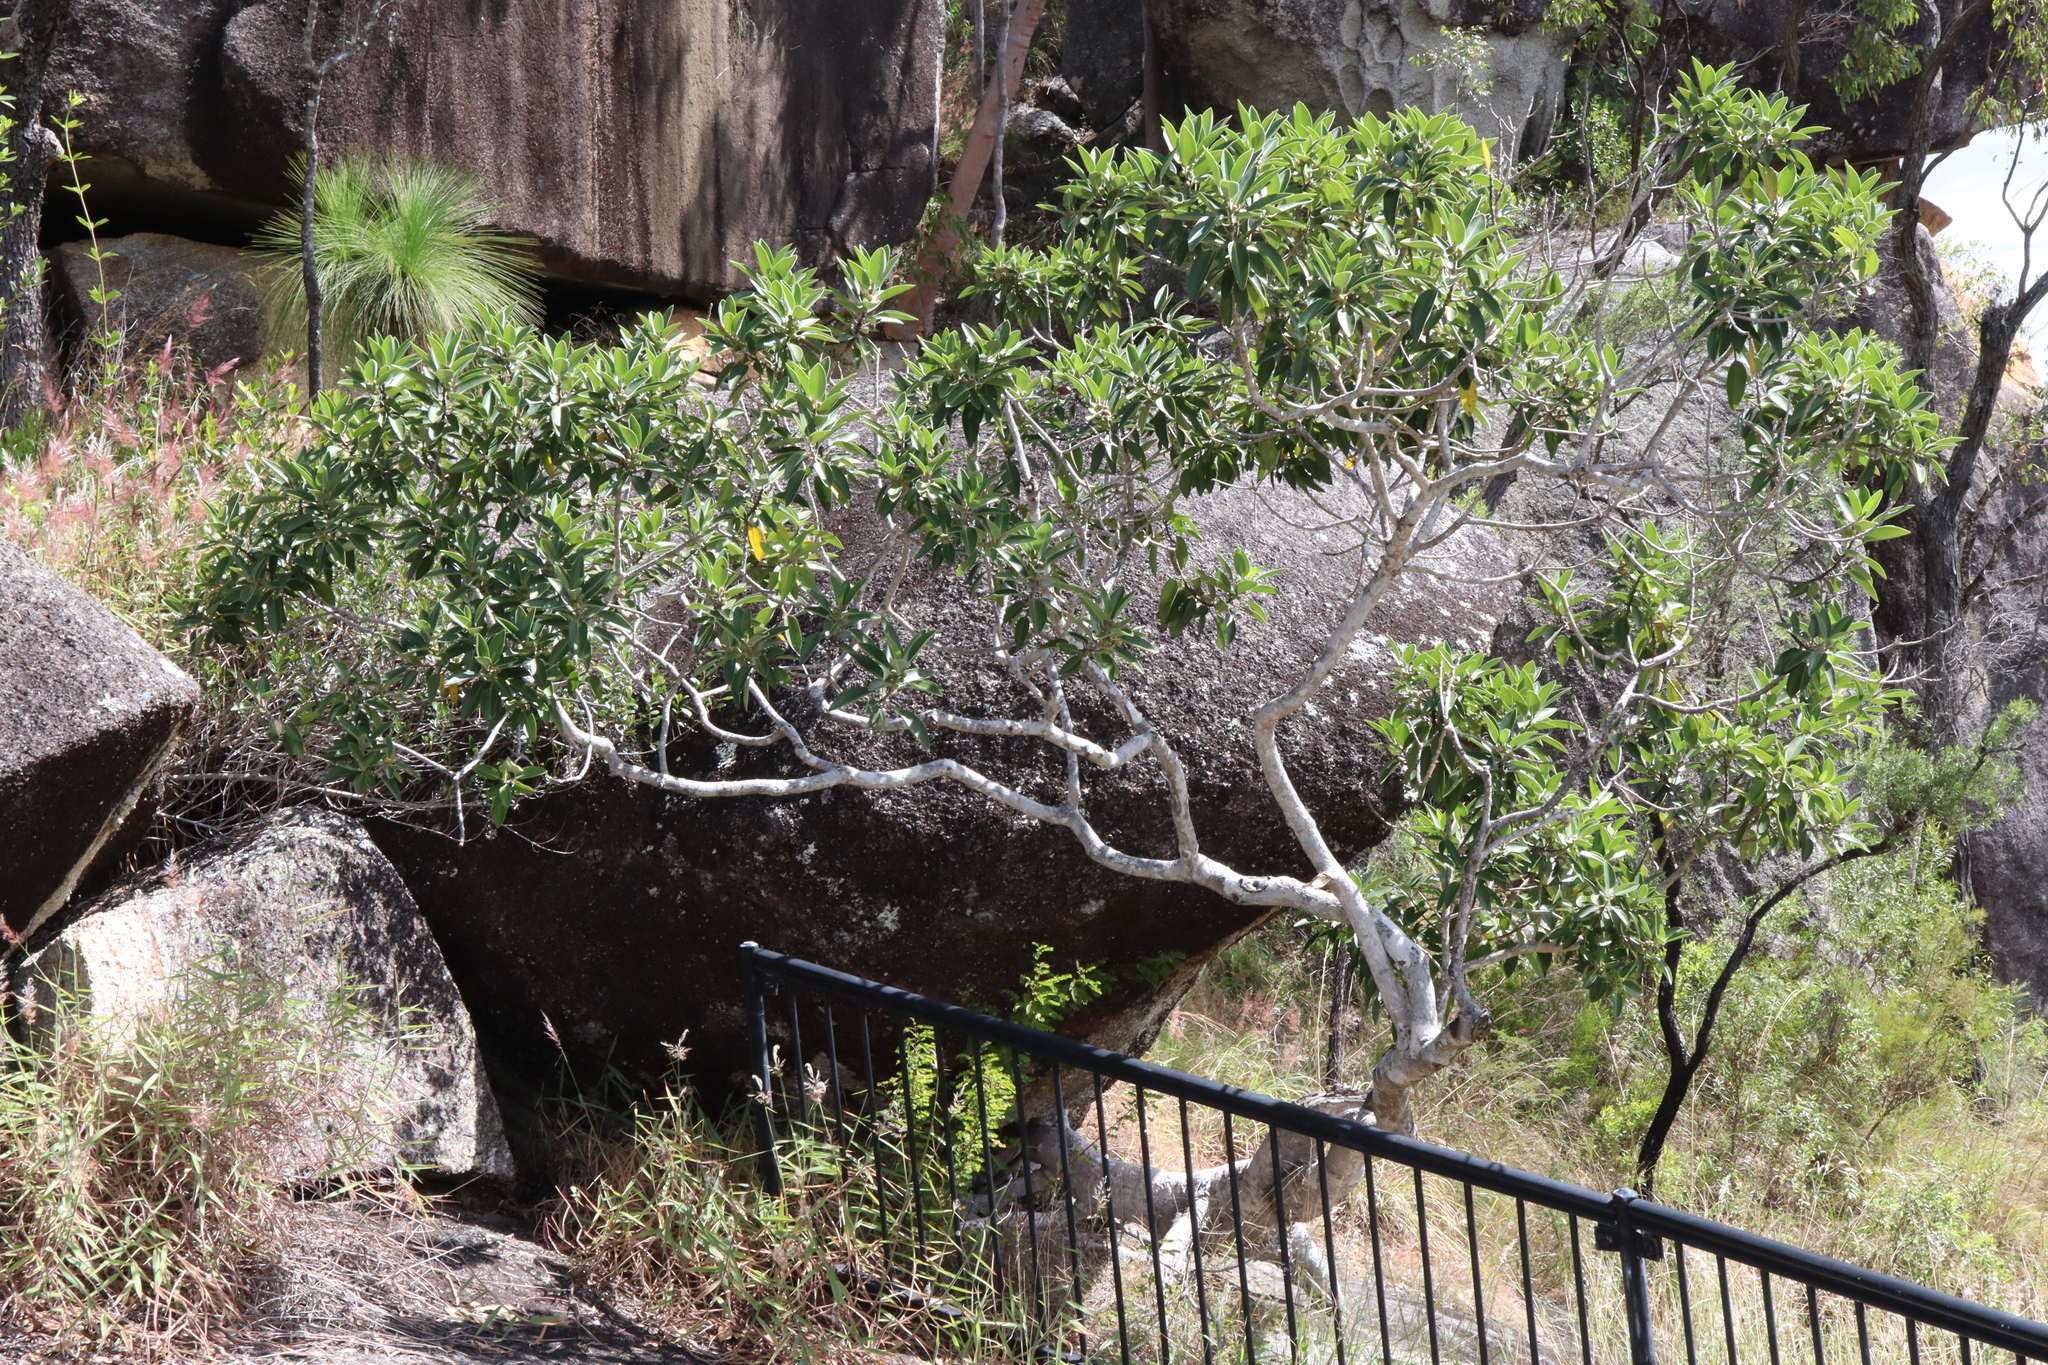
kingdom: Plantae
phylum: Tracheophyta
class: Magnoliopsida
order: Rosales
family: Moraceae
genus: Ficus
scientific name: Ficus rubiginosa
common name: Port jackson fig
